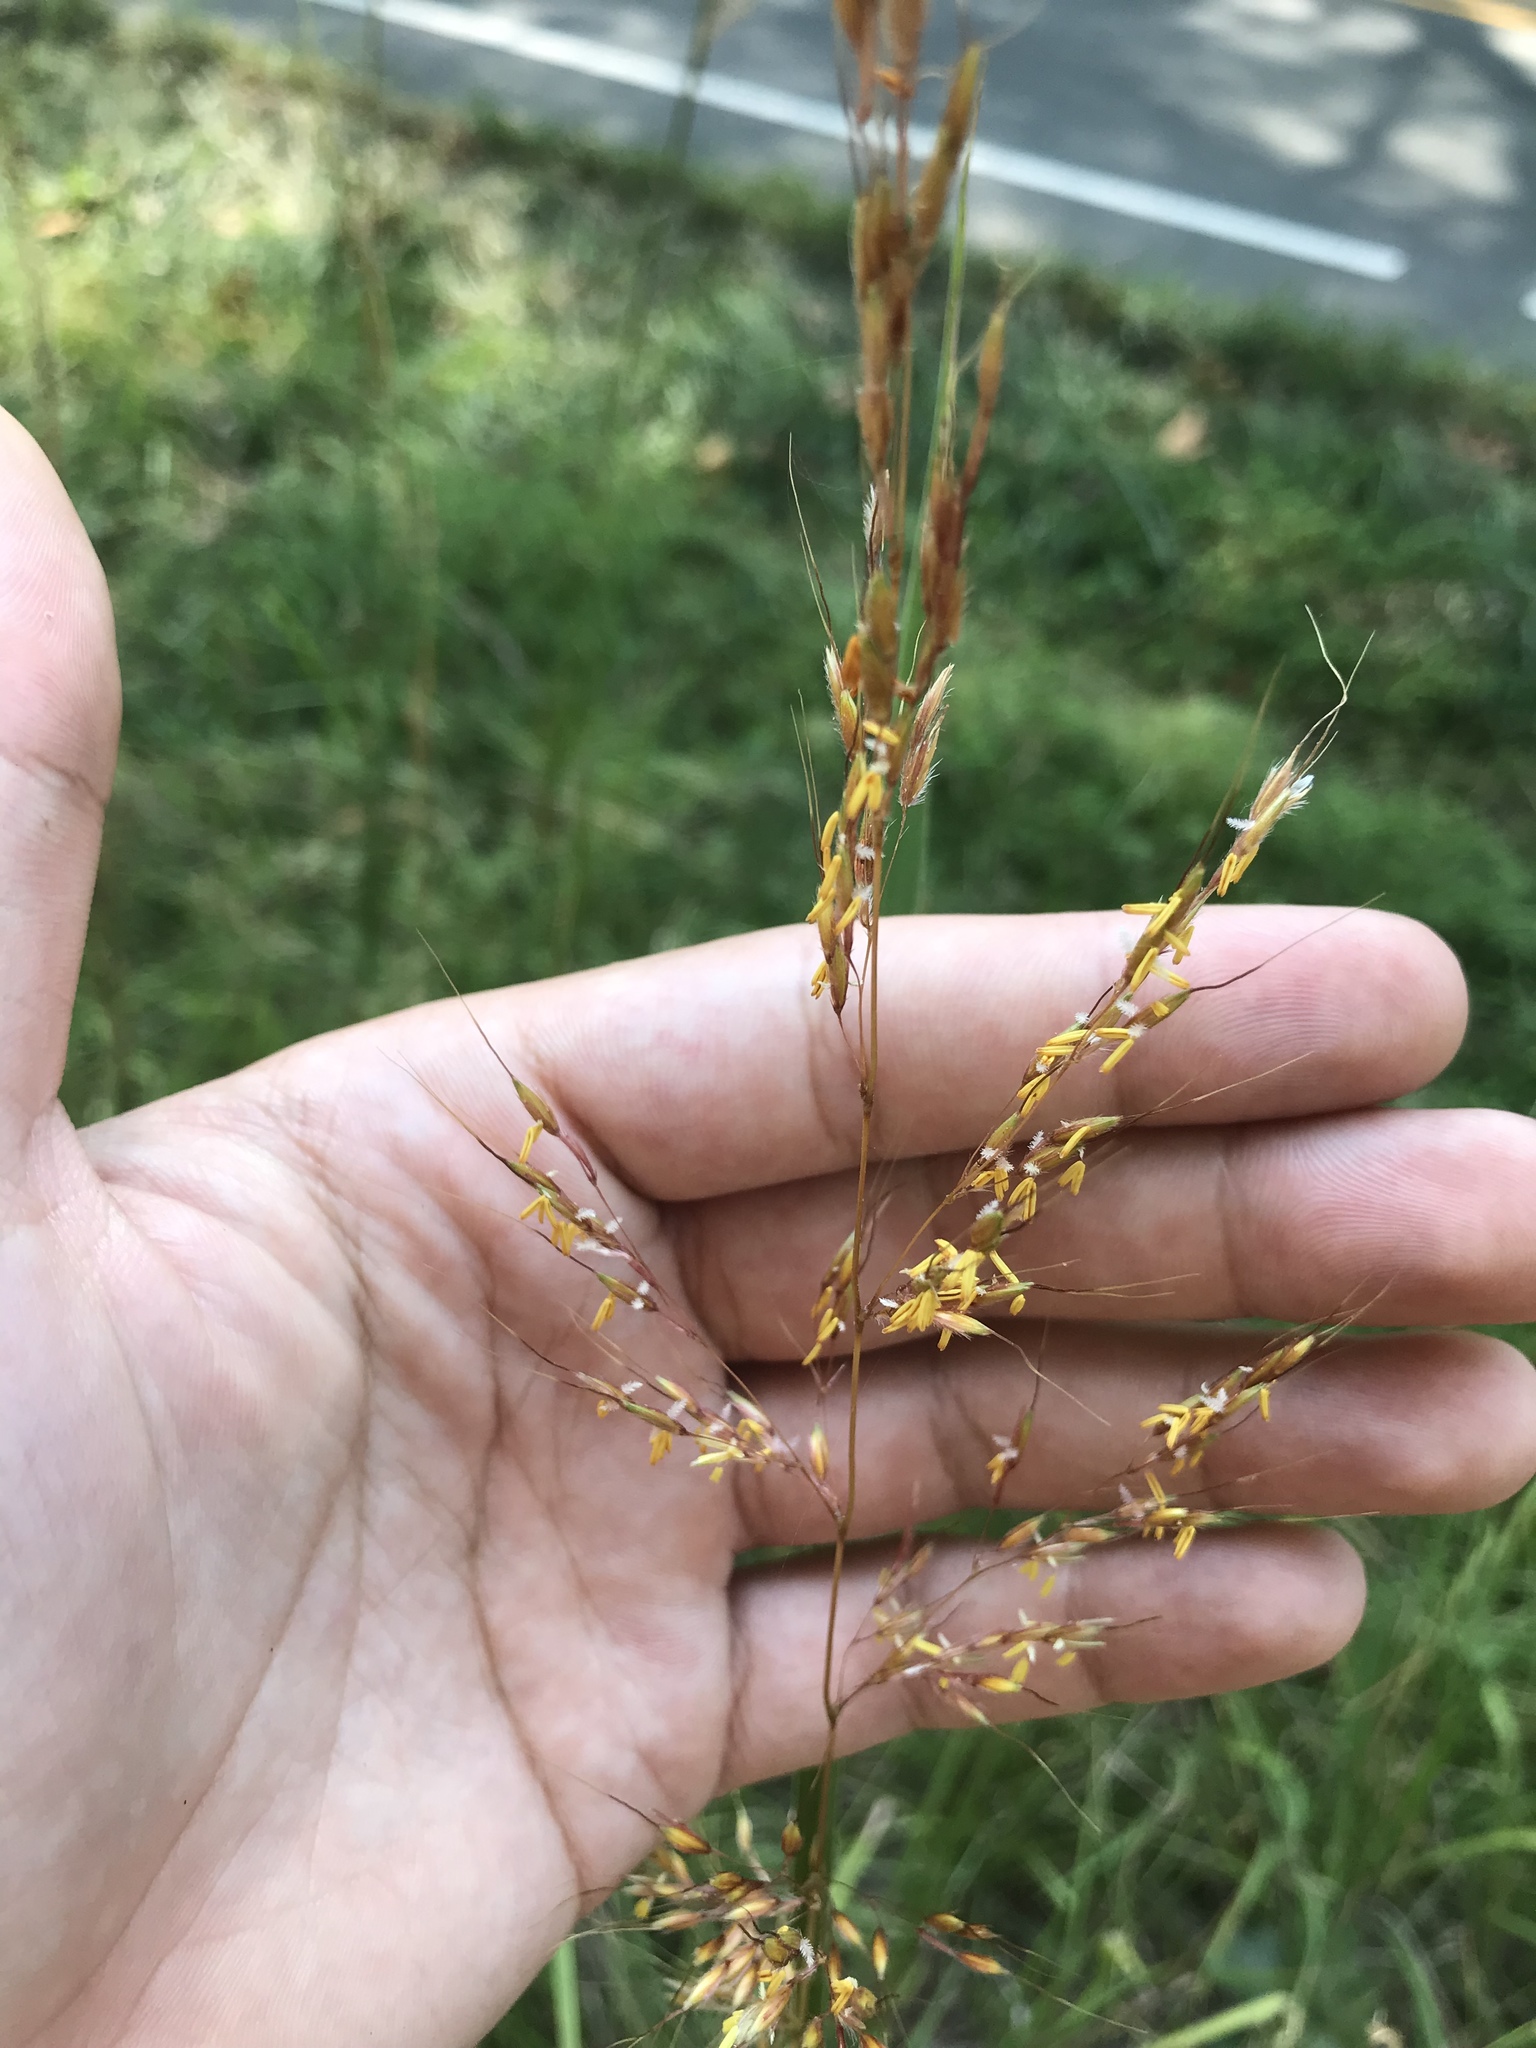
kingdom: Plantae
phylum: Tracheophyta
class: Liliopsida
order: Poales
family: Poaceae
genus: Sorghastrum
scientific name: Sorghastrum nutans
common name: Indian grass
